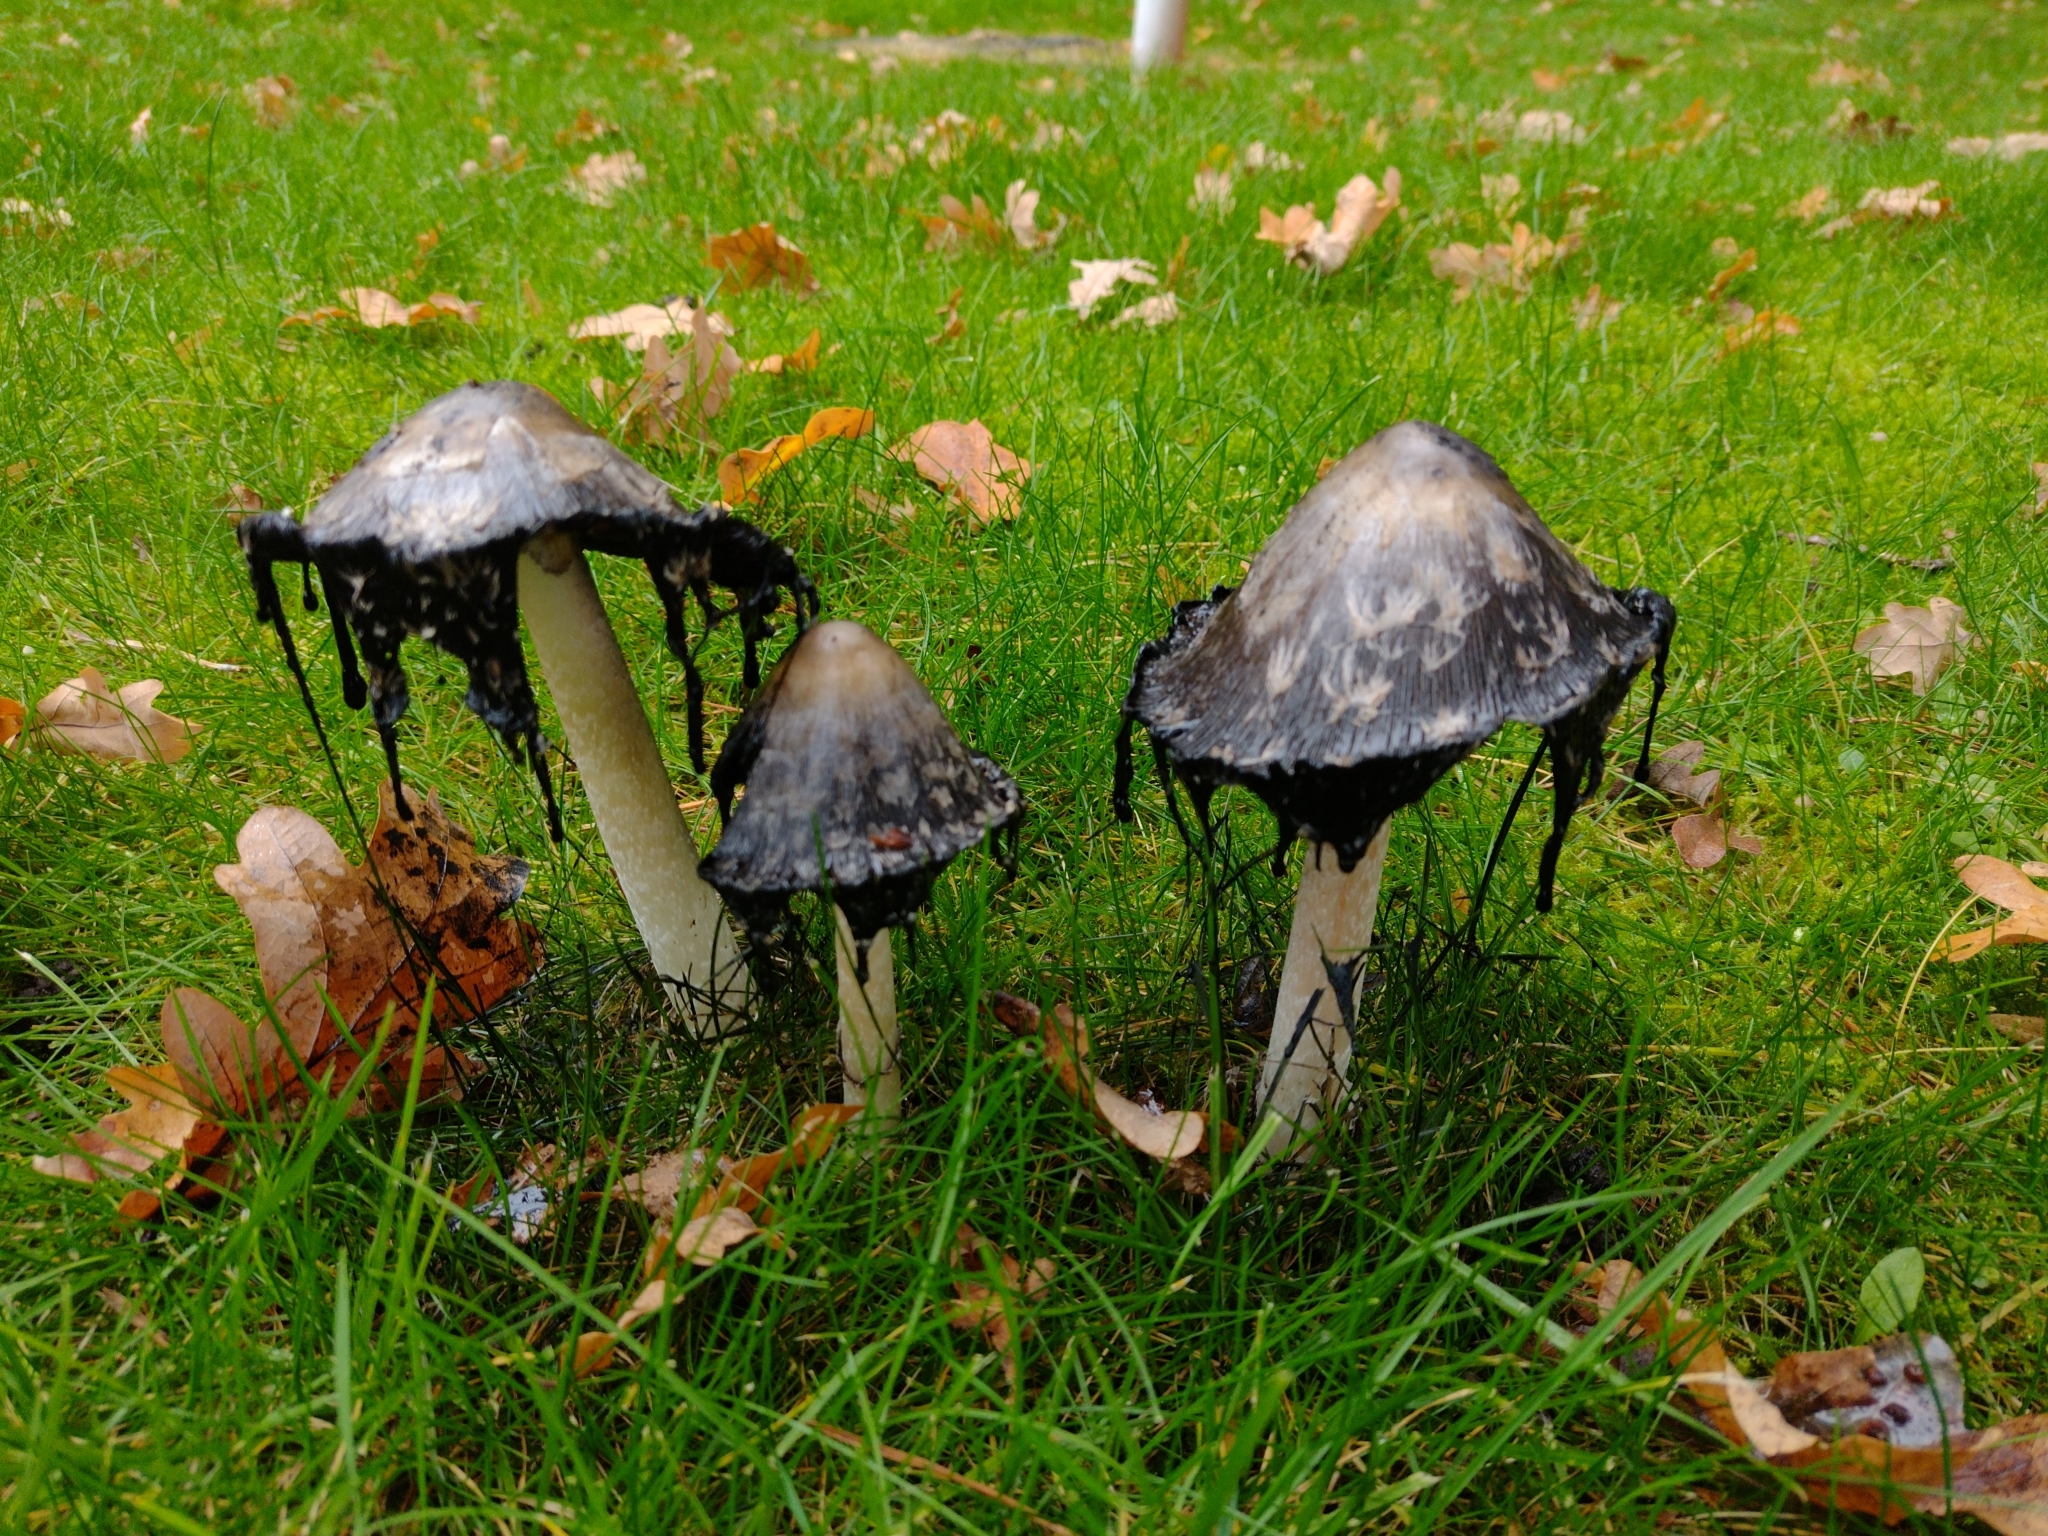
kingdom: Fungi
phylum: Basidiomycota
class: Agaricomycetes
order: Agaricales
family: Agaricaceae
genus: Coprinus
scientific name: Coprinus comatus
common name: Lawyer's wig
